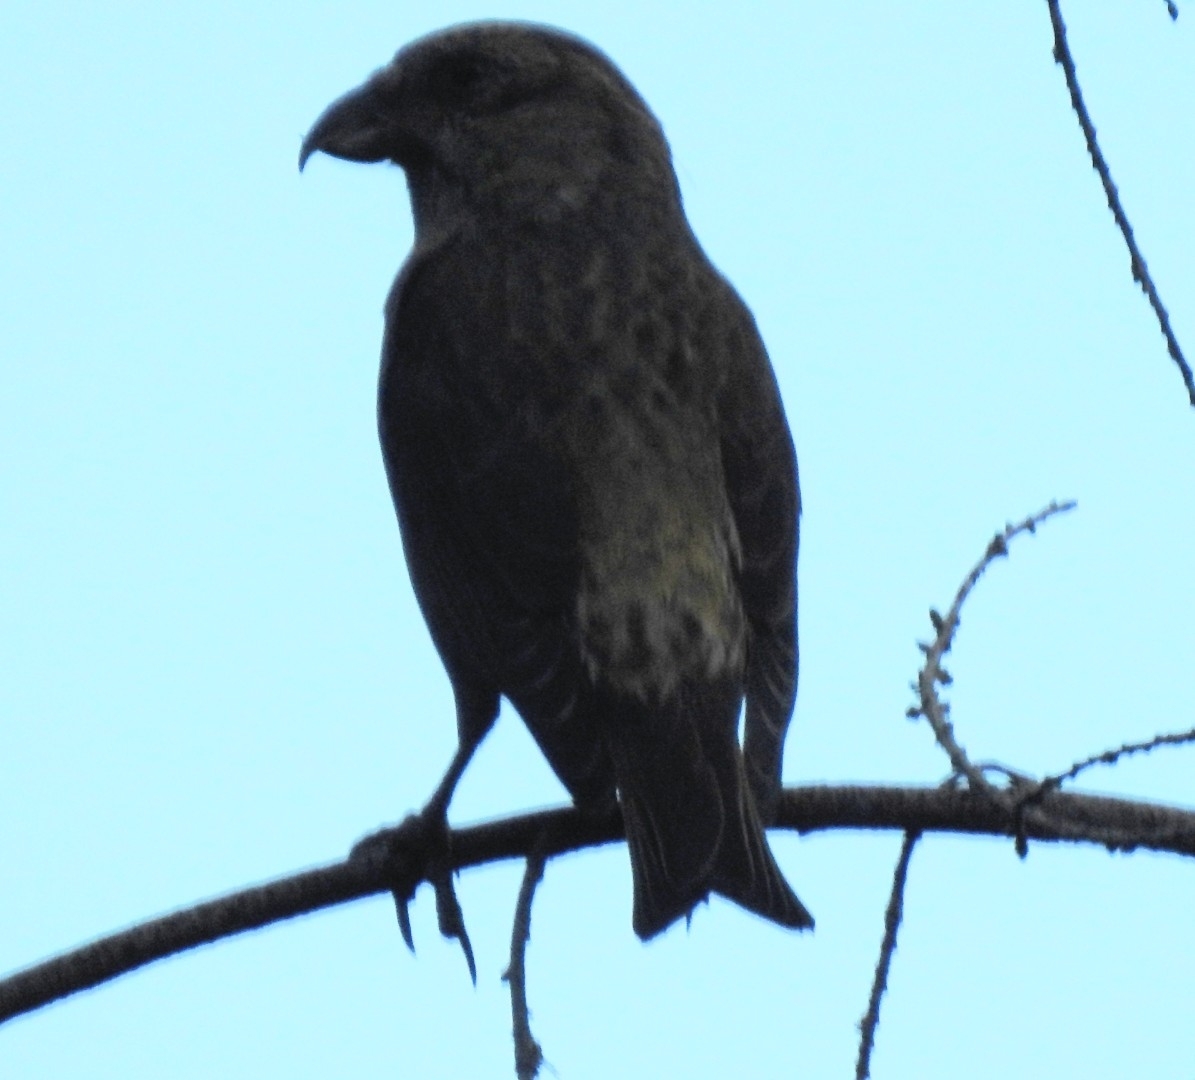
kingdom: Animalia
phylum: Chordata
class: Aves
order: Passeriformes
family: Fringillidae
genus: Loxia
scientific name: Loxia curvirostra
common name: Red crossbill
